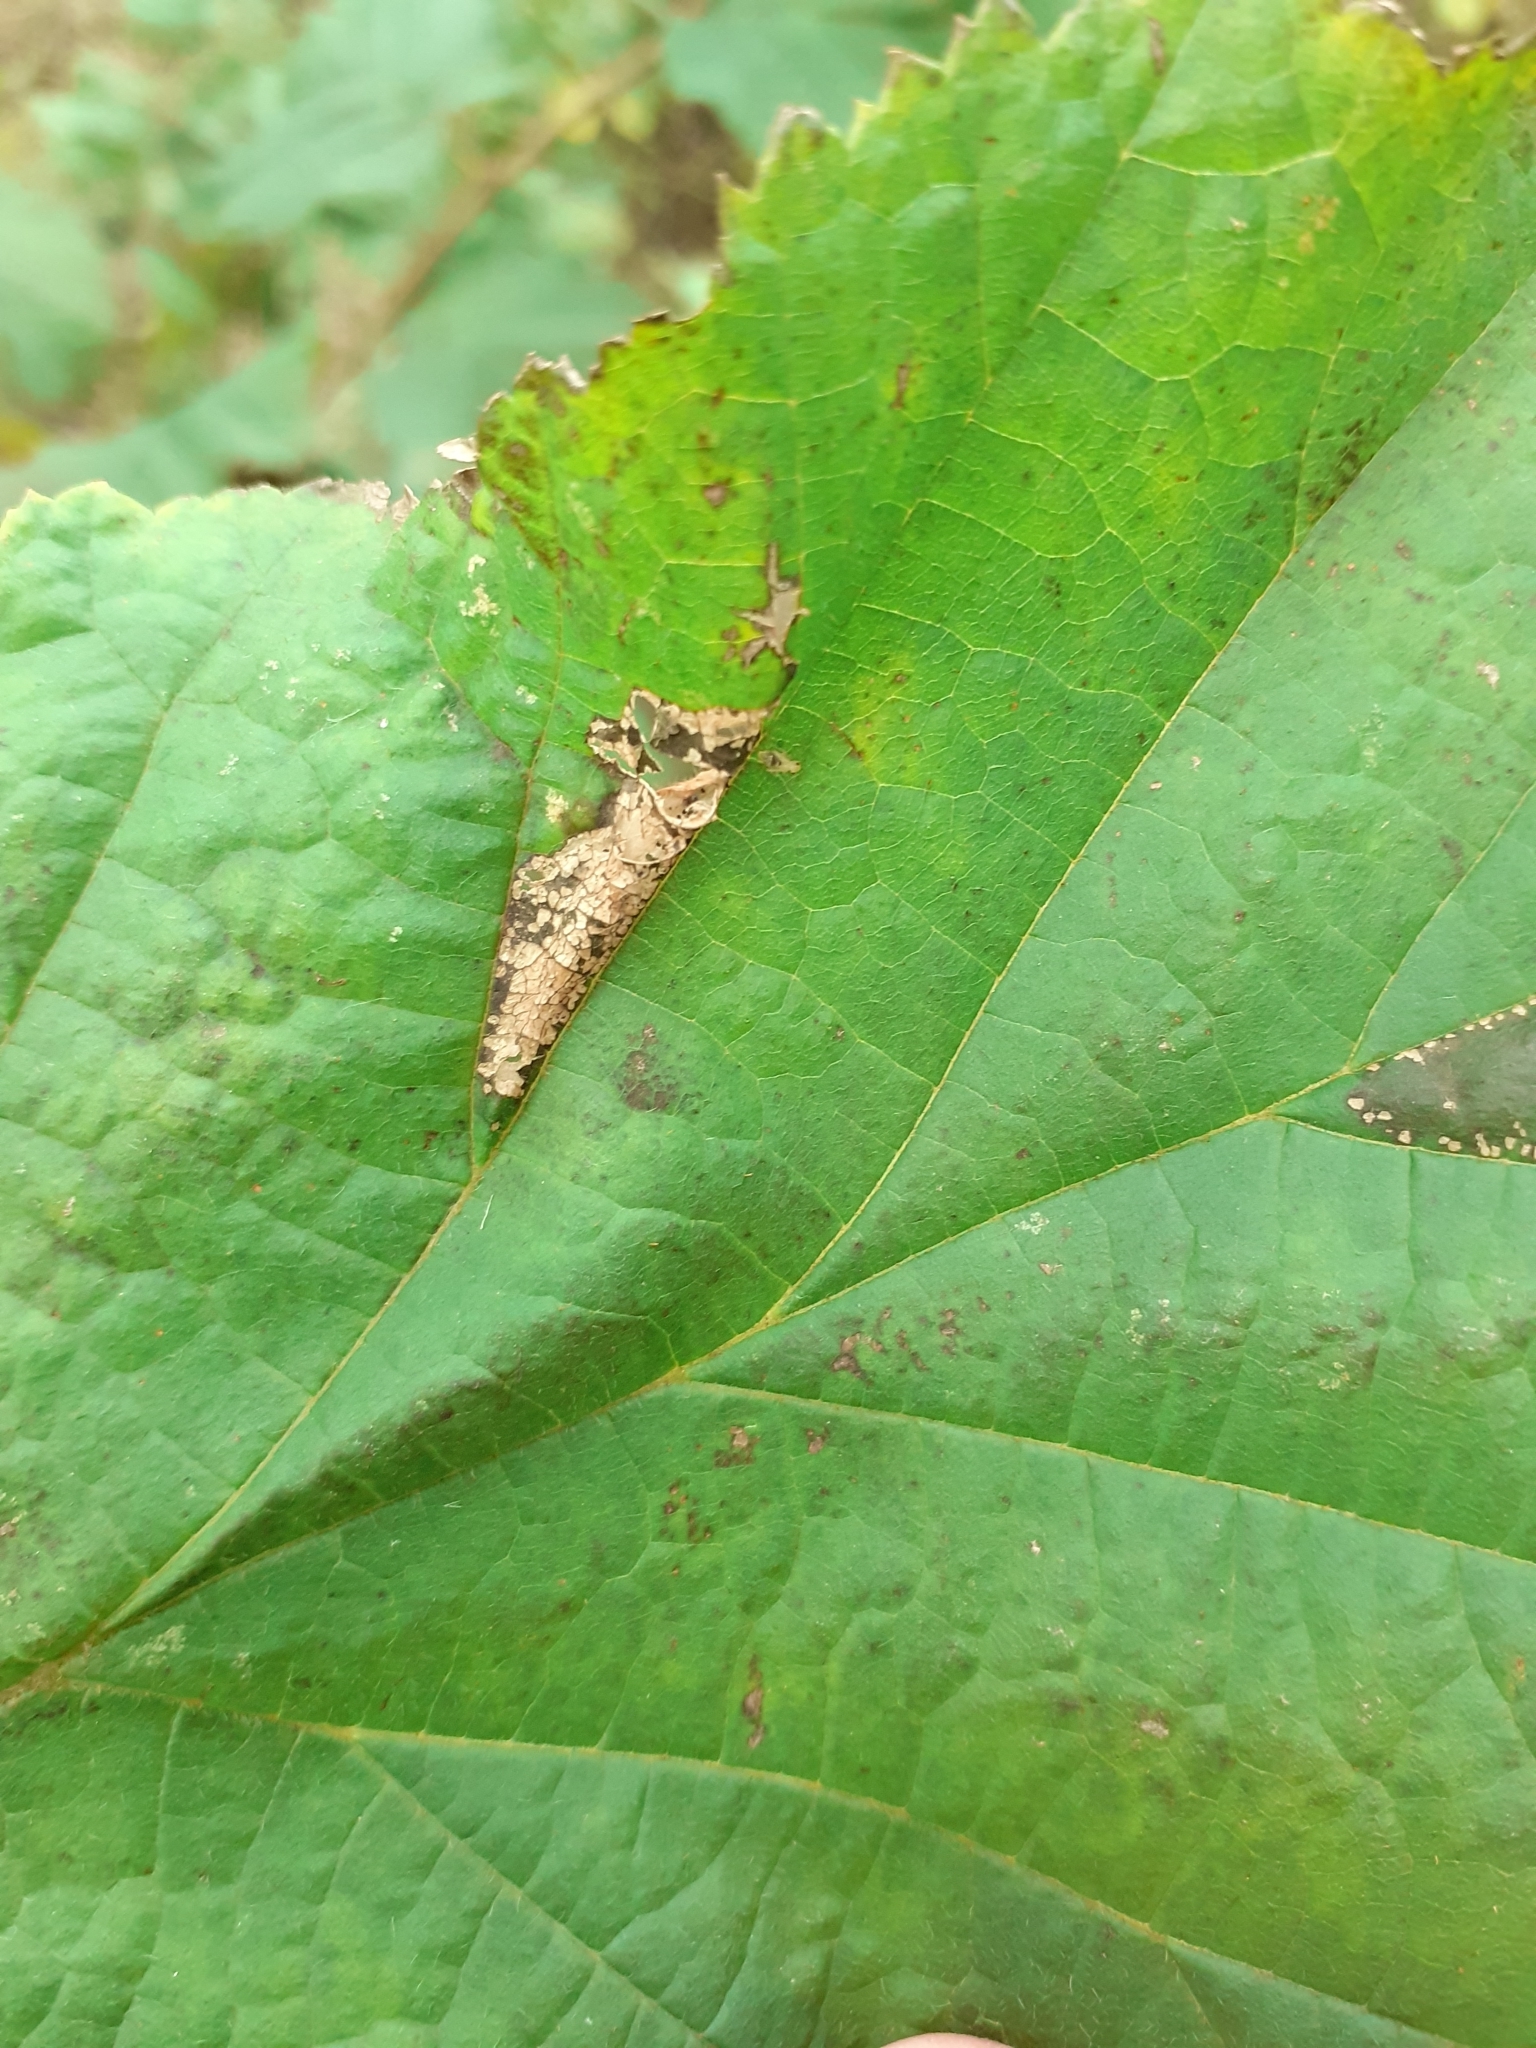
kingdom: Animalia
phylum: Arthropoda
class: Insecta
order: Lepidoptera
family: Gracillariidae
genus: Phyllonorycter
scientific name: Phyllonorycter nicellii
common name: Red hazel midget
